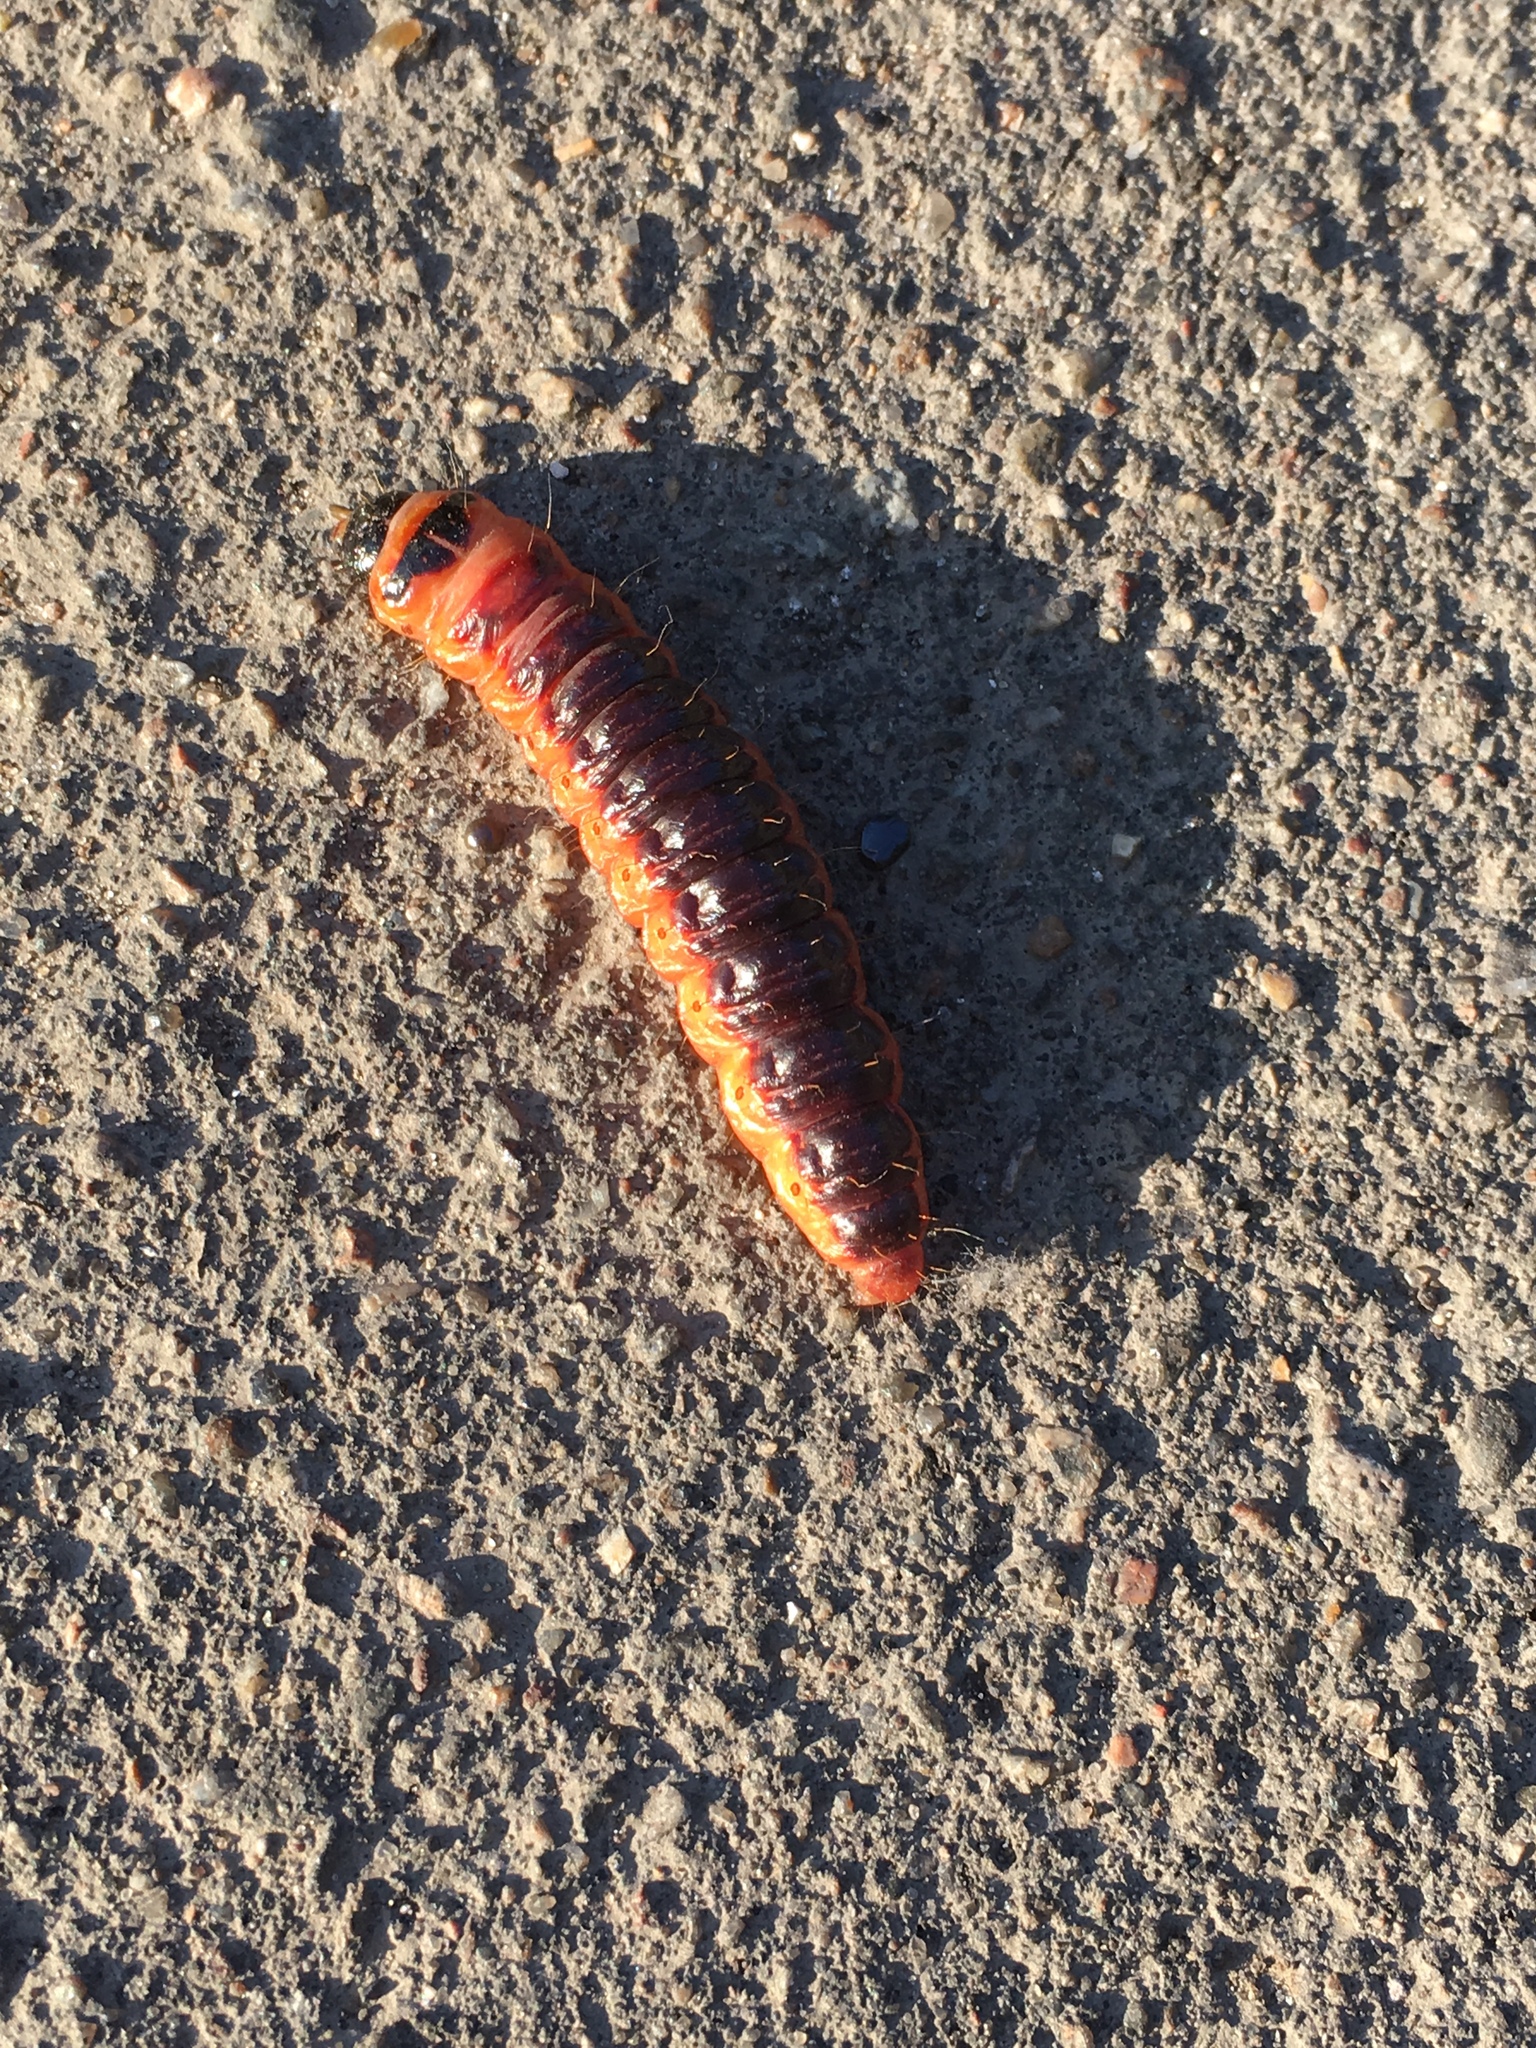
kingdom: Animalia
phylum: Arthropoda
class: Insecta
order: Lepidoptera
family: Cossidae
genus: Cossus
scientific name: Cossus cossus
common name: Goat moth
